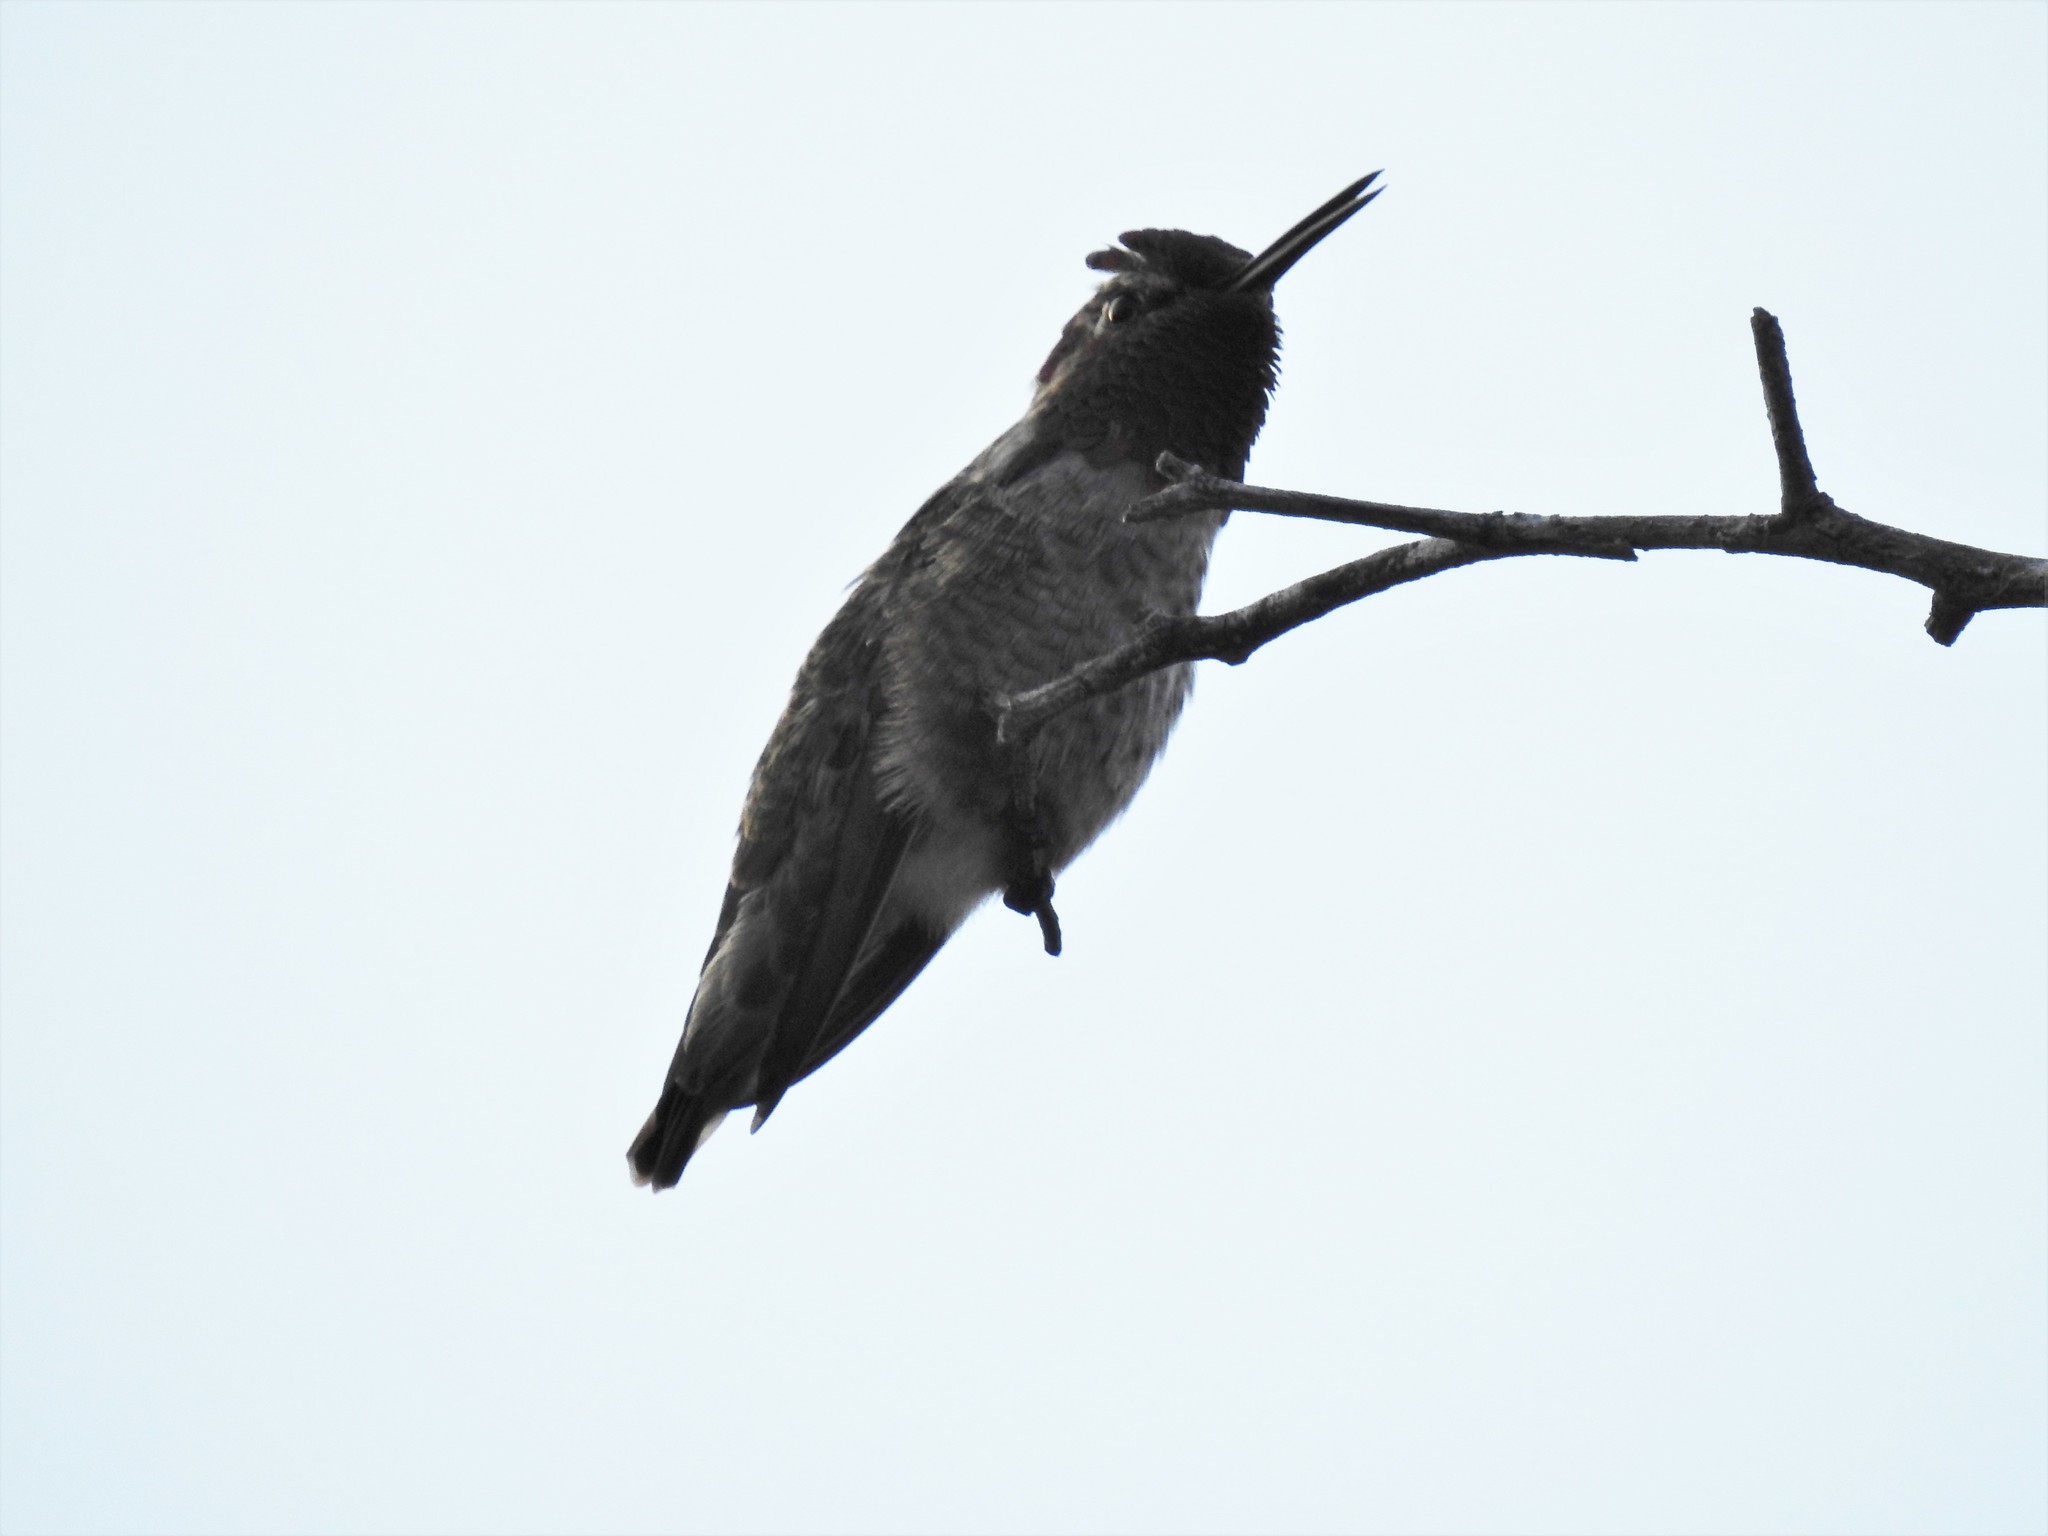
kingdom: Animalia
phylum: Chordata
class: Aves
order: Apodiformes
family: Trochilidae
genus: Calypte
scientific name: Calypte anna
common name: Anna's hummingbird
